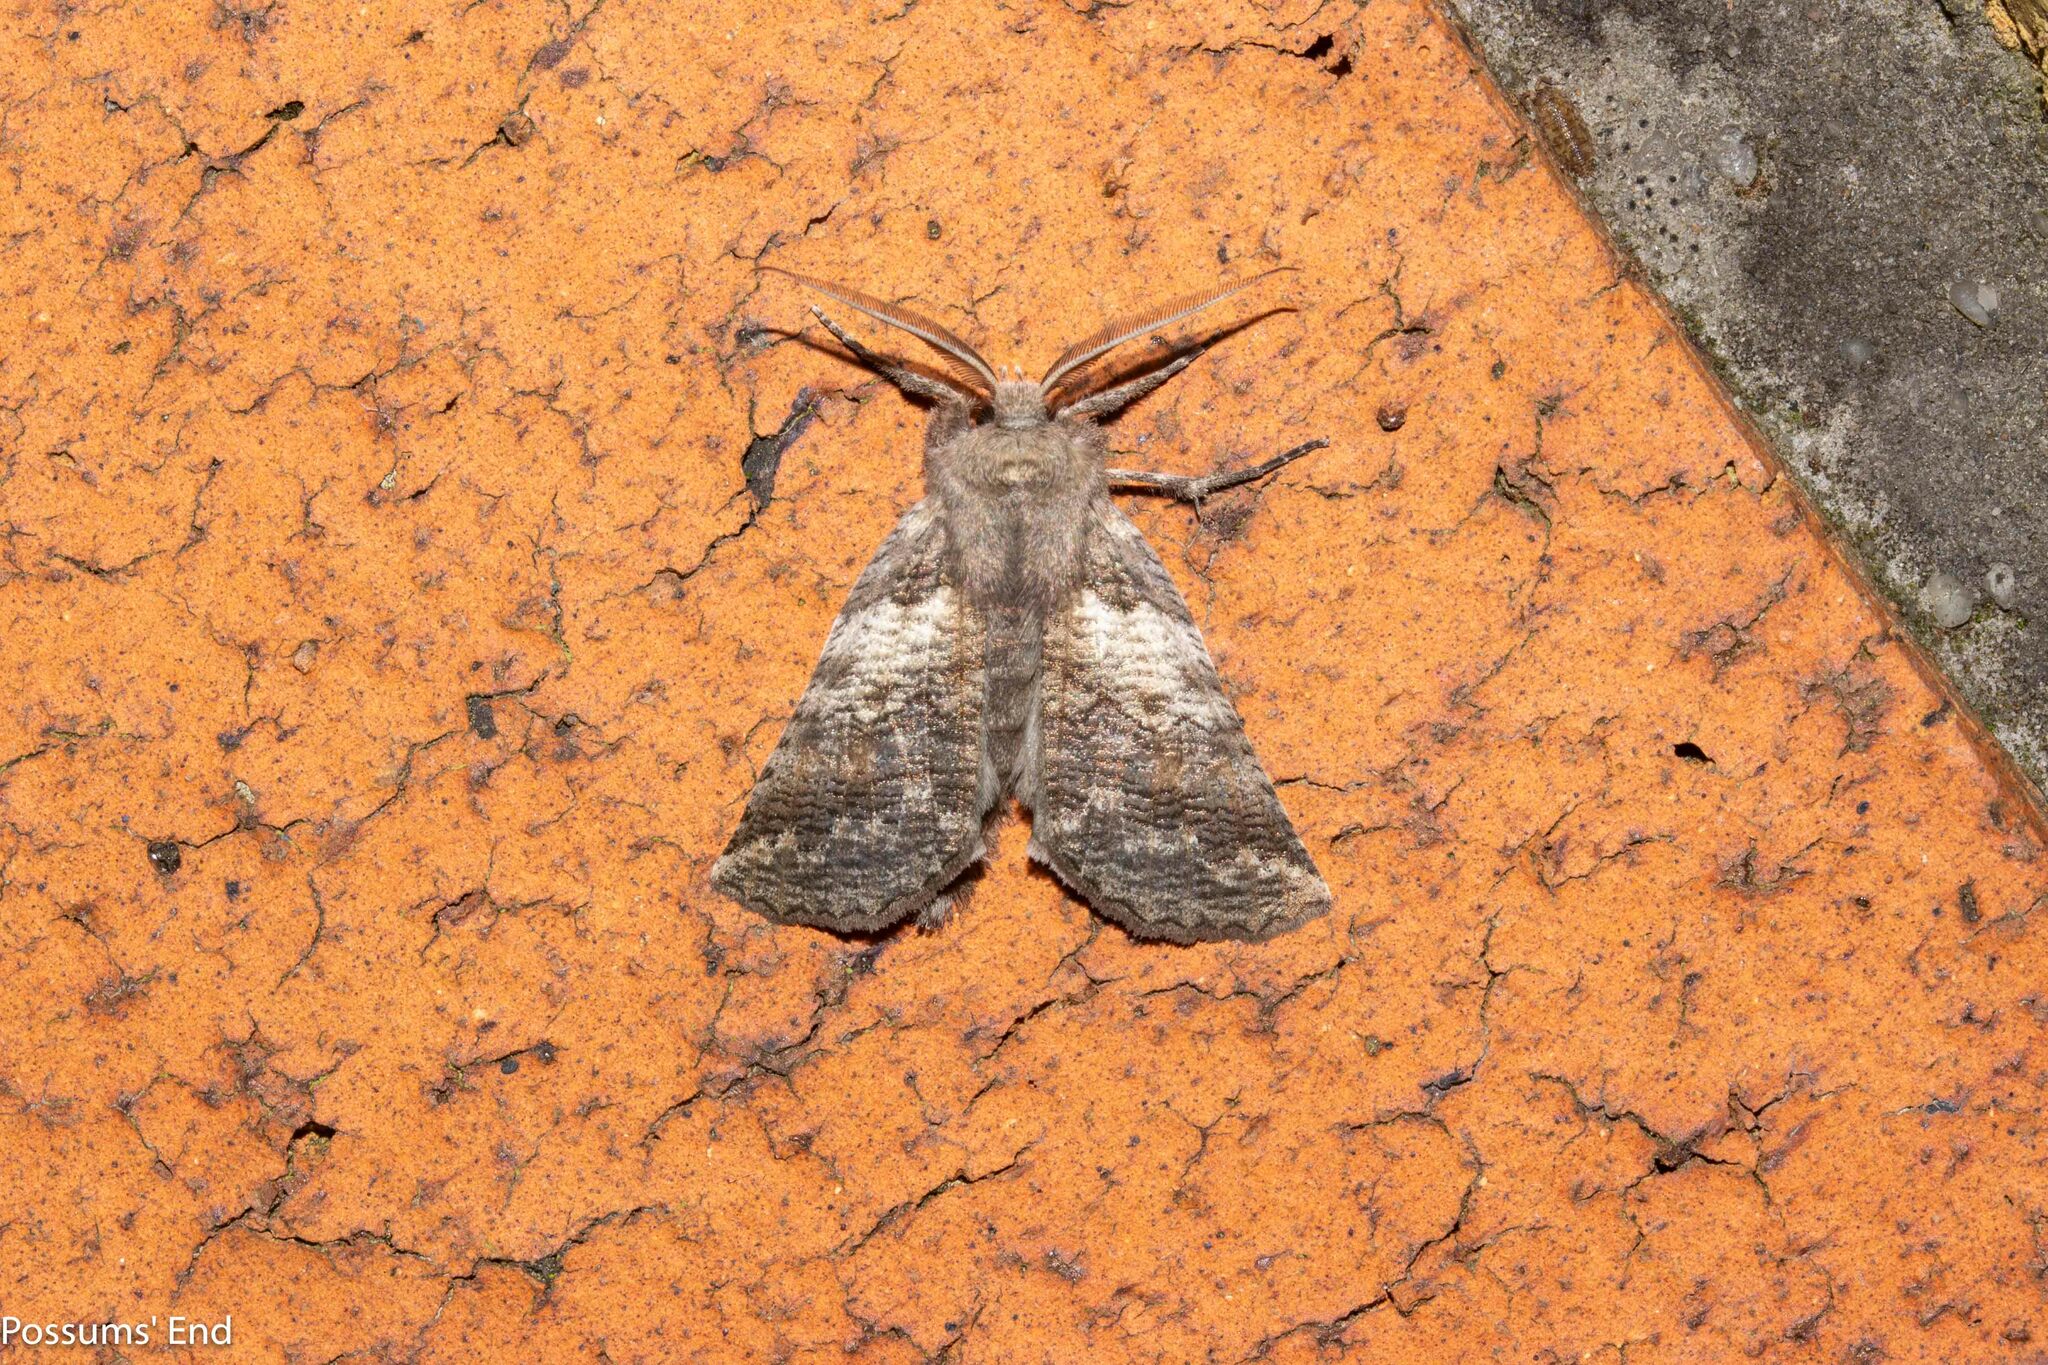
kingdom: Animalia
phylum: Arthropoda
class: Insecta
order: Lepidoptera
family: Geometridae
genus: Declana
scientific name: Declana
